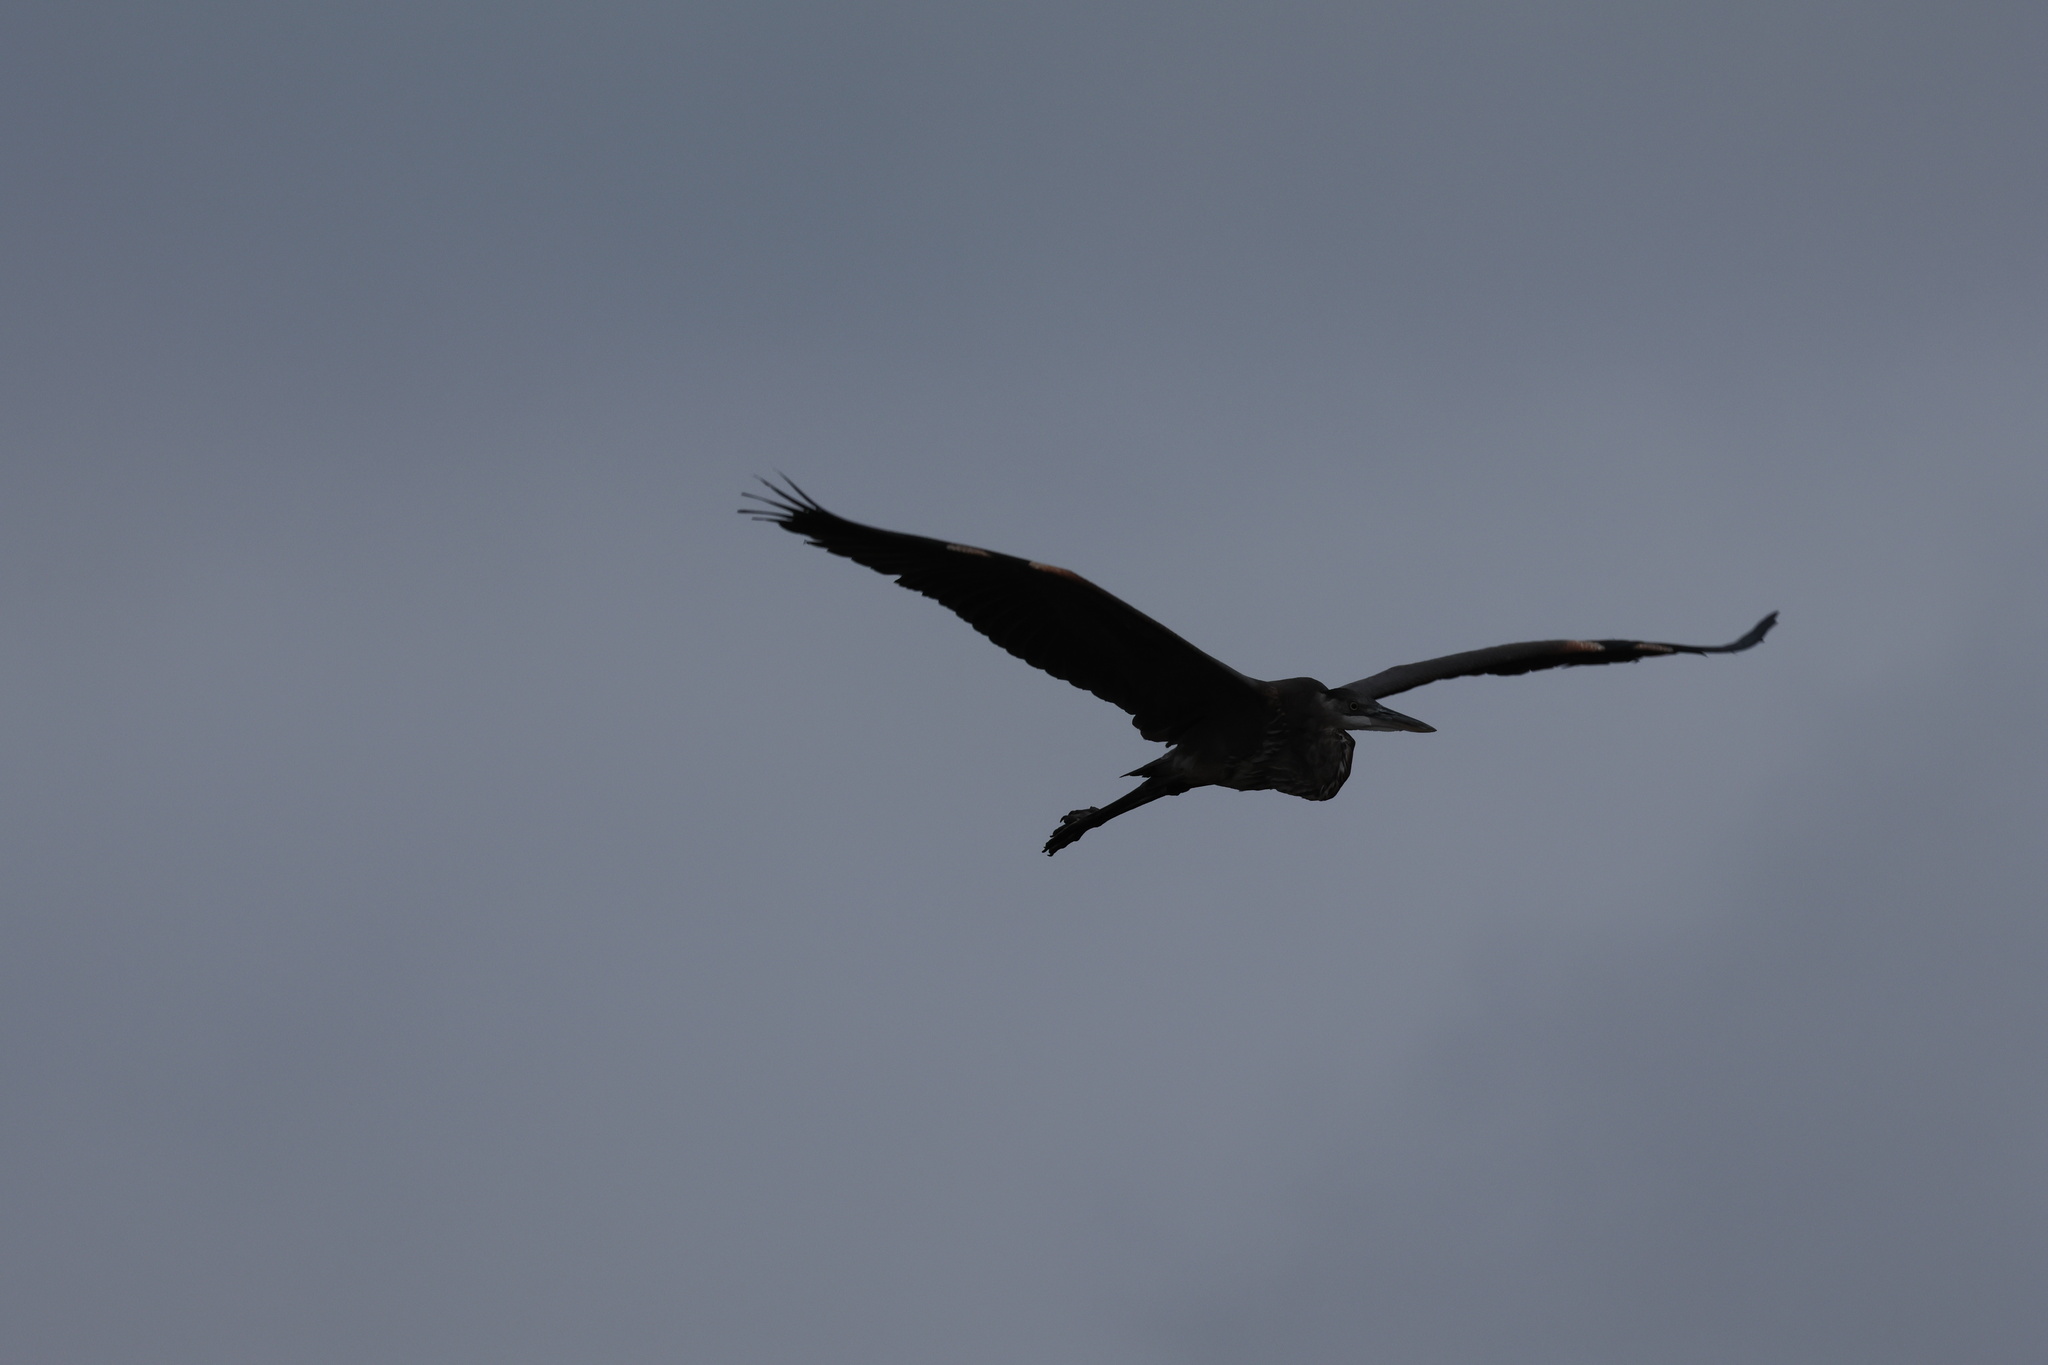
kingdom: Animalia
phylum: Chordata
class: Aves
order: Pelecaniformes
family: Ardeidae
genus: Ardea
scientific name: Ardea herodias
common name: Great blue heron
